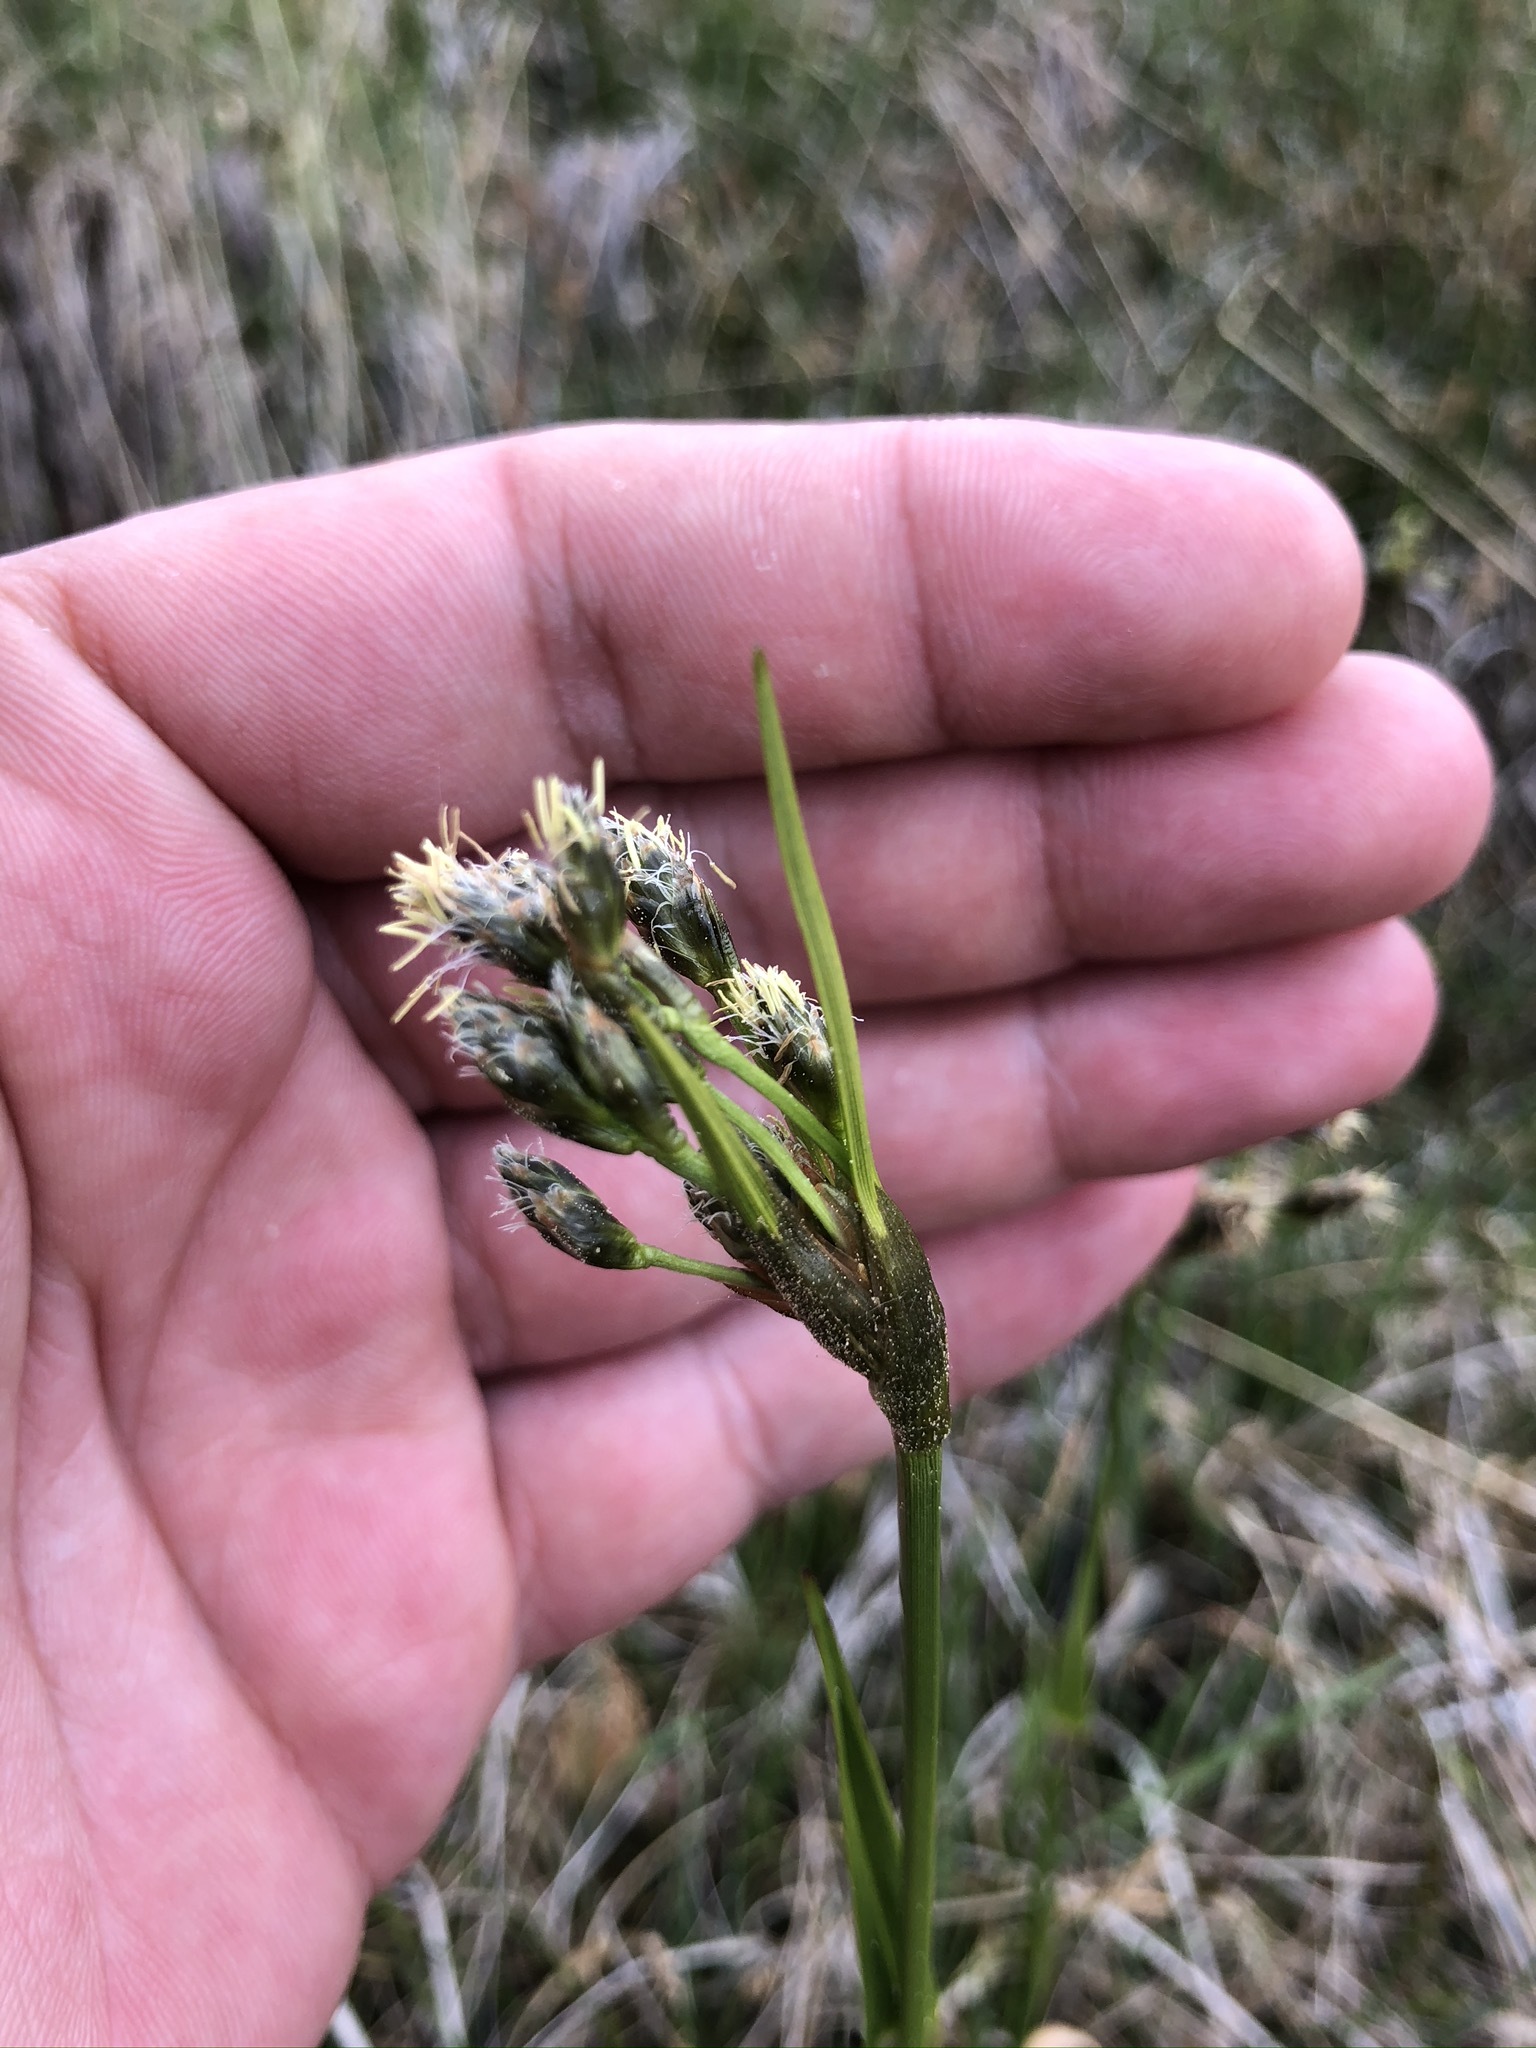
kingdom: Plantae
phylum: Tracheophyta
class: Liliopsida
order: Poales
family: Cyperaceae
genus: Eriophorum
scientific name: Eriophorum latifolium
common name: Broad-leaved cottongrass
